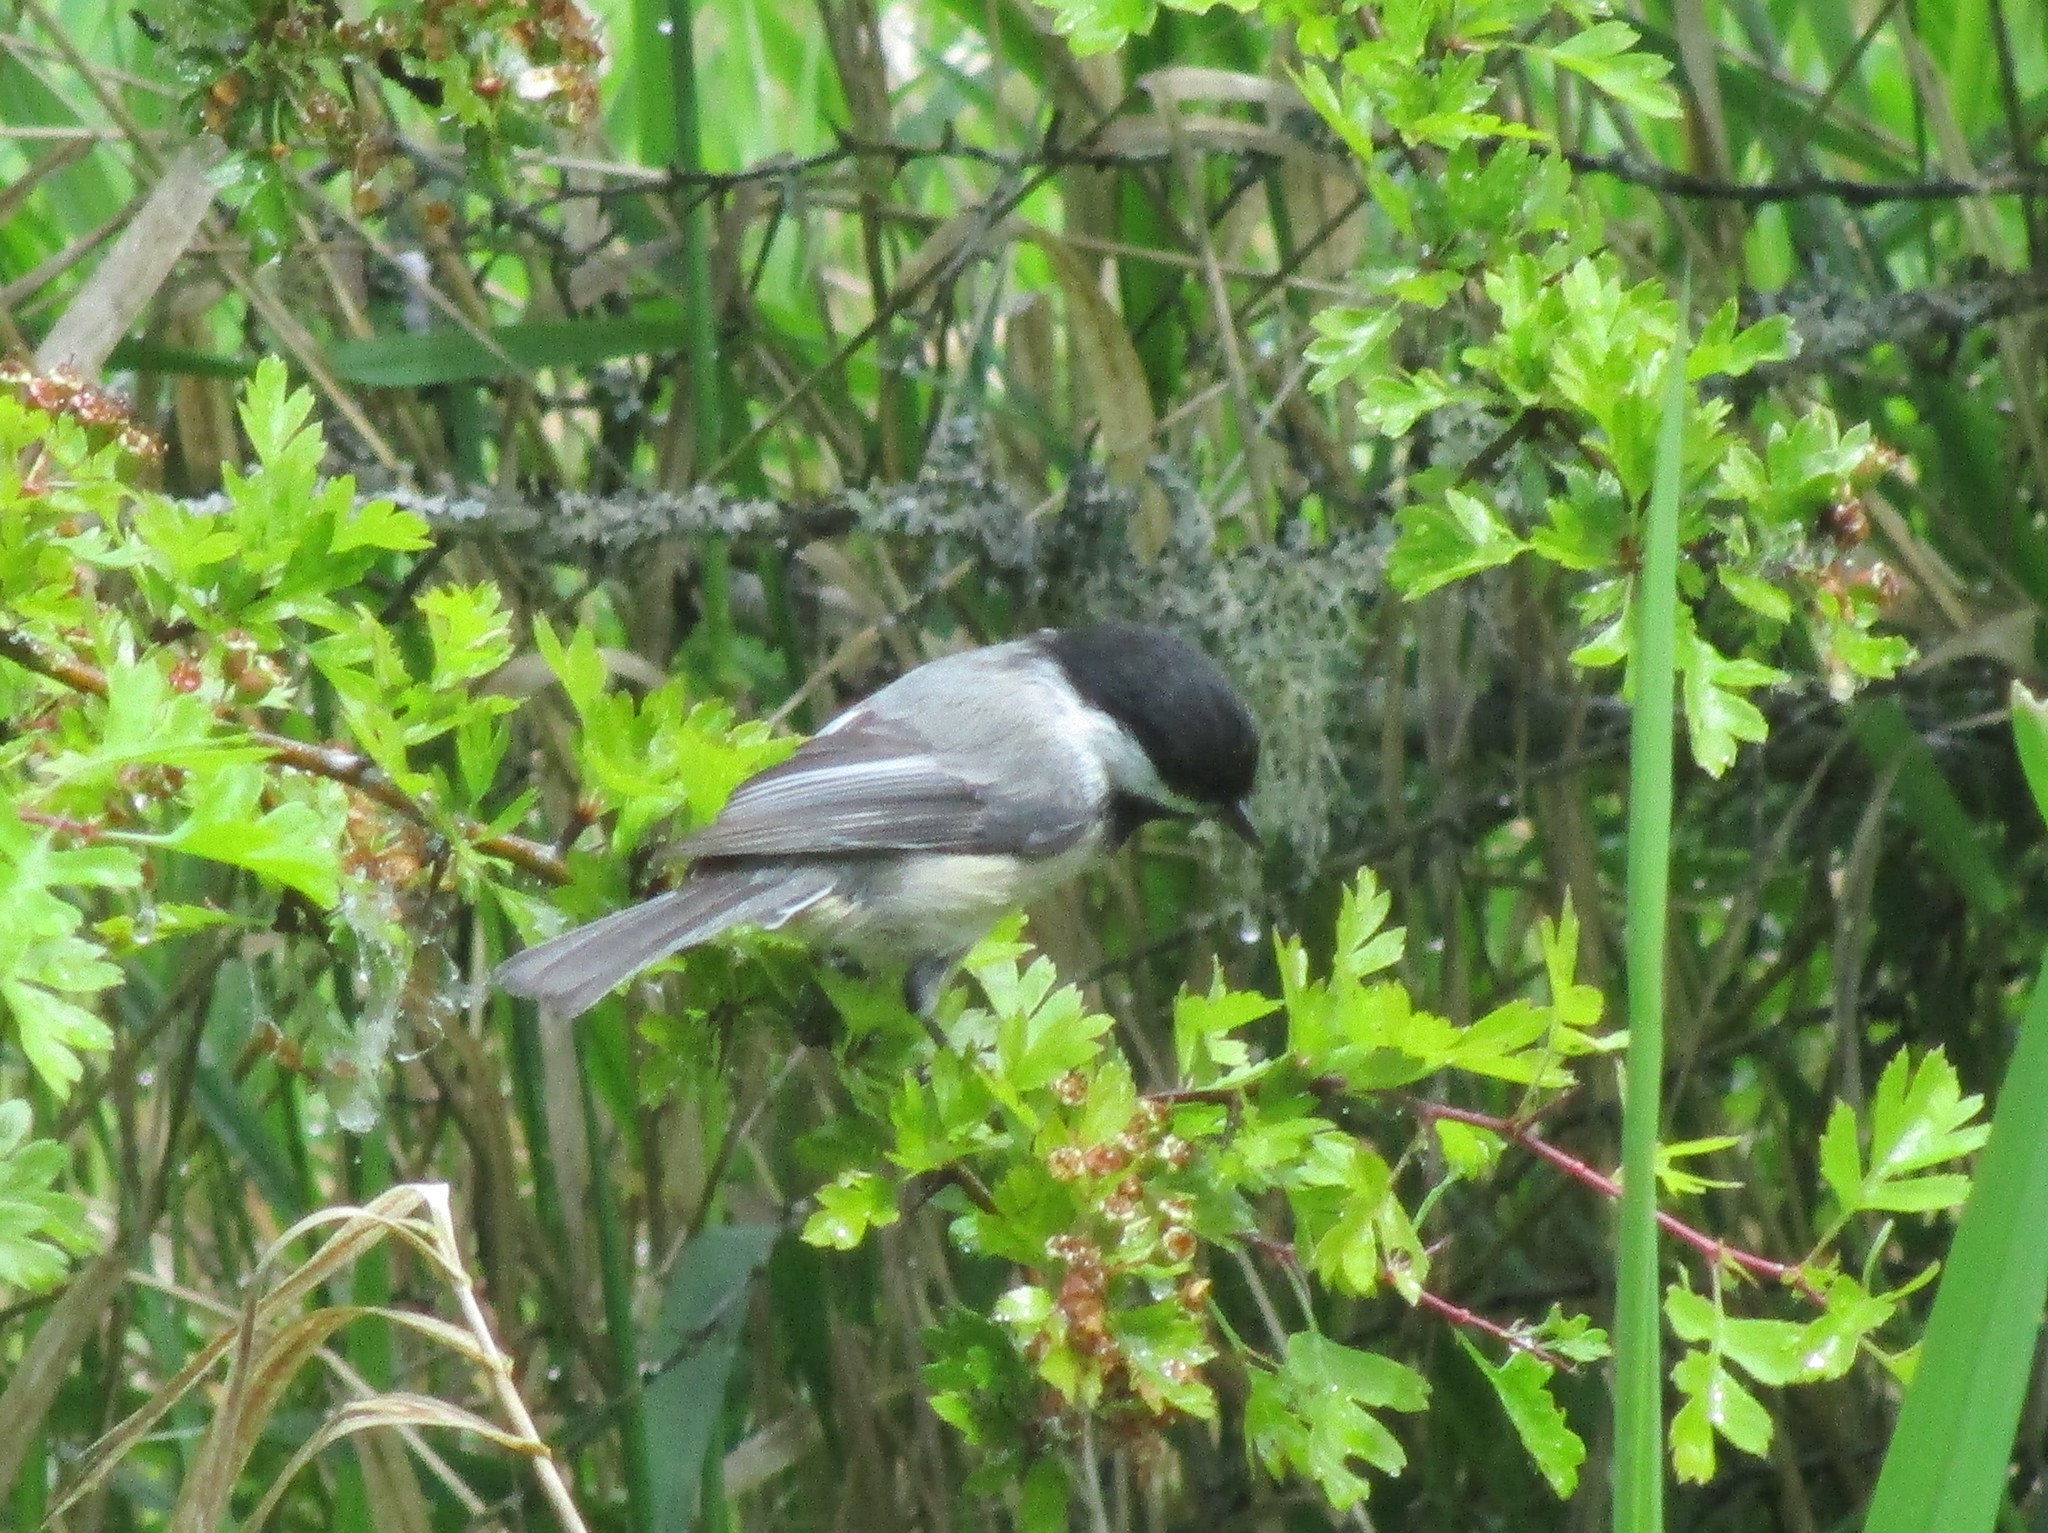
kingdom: Animalia
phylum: Chordata
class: Aves
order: Passeriformes
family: Paridae
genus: Poecile
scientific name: Poecile atricapillus
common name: Black-capped chickadee
